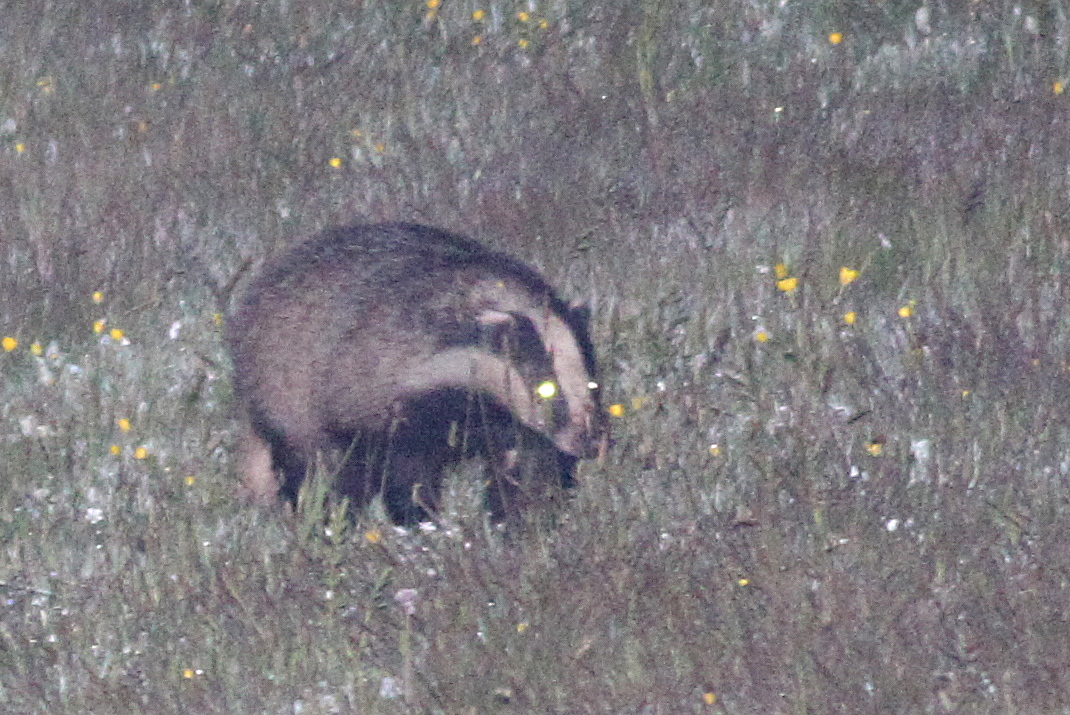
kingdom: Animalia
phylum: Chordata
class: Mammalia
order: Carnivora
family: Mustelidae
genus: Meles
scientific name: Meles meles
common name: Eurasian badger
